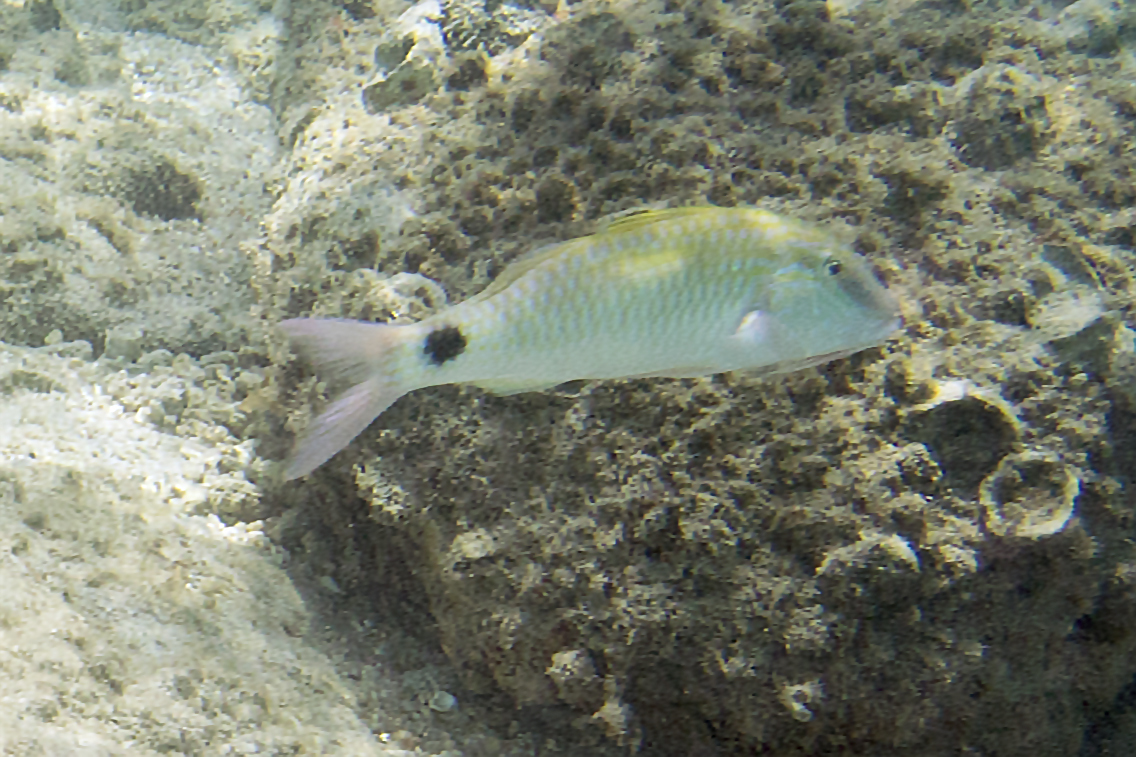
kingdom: Animalia
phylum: Chordata
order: Perciformes
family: Mullidae
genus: Parupeneus
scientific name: Parupeneus indicus
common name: Indian goatfish
